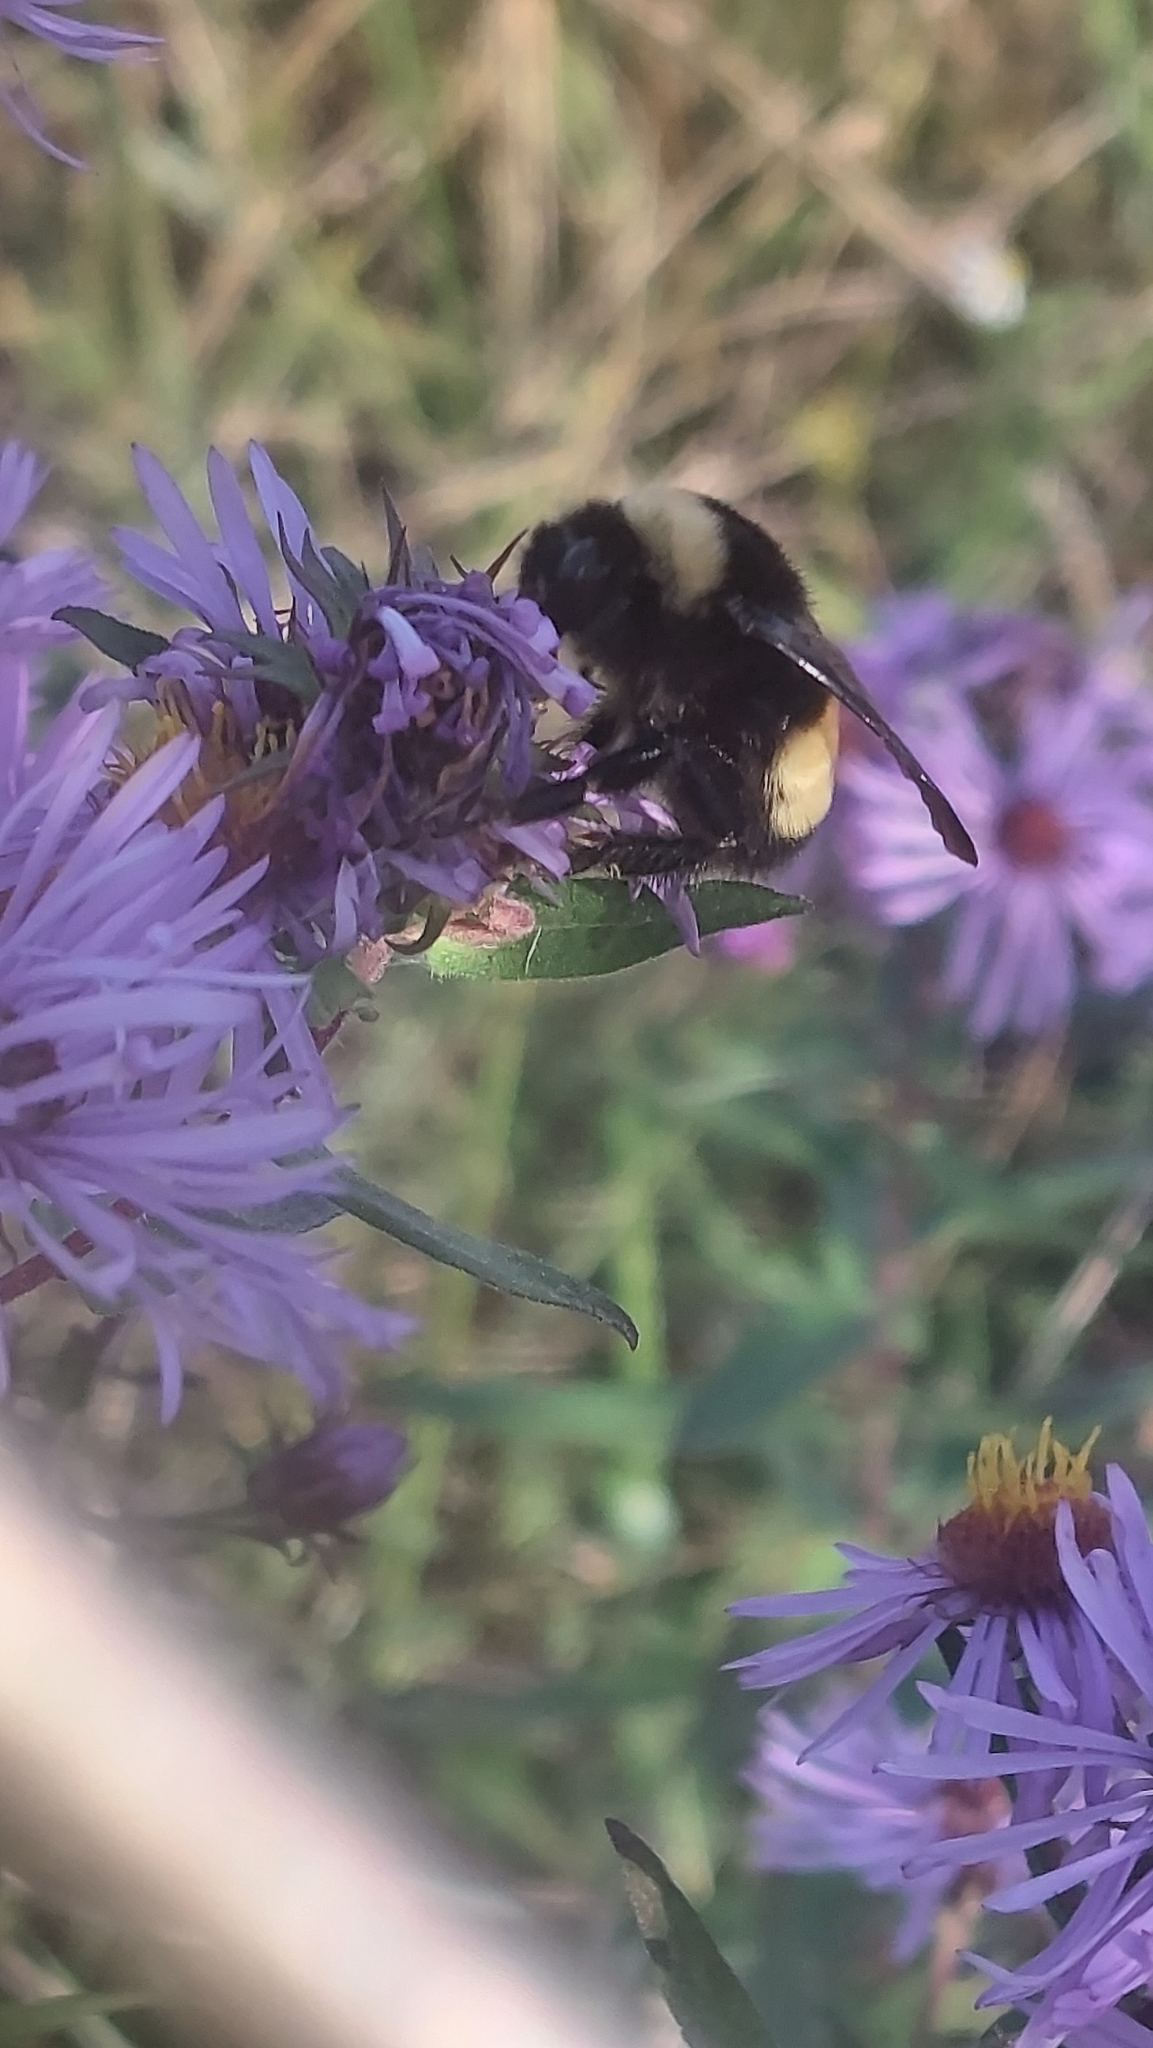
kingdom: Animalia
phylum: Arthropoda
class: Insecta
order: Hymenoptera
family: Apidae
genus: Bombus
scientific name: Bombus terricola
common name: Yellow-banded bumble bee
